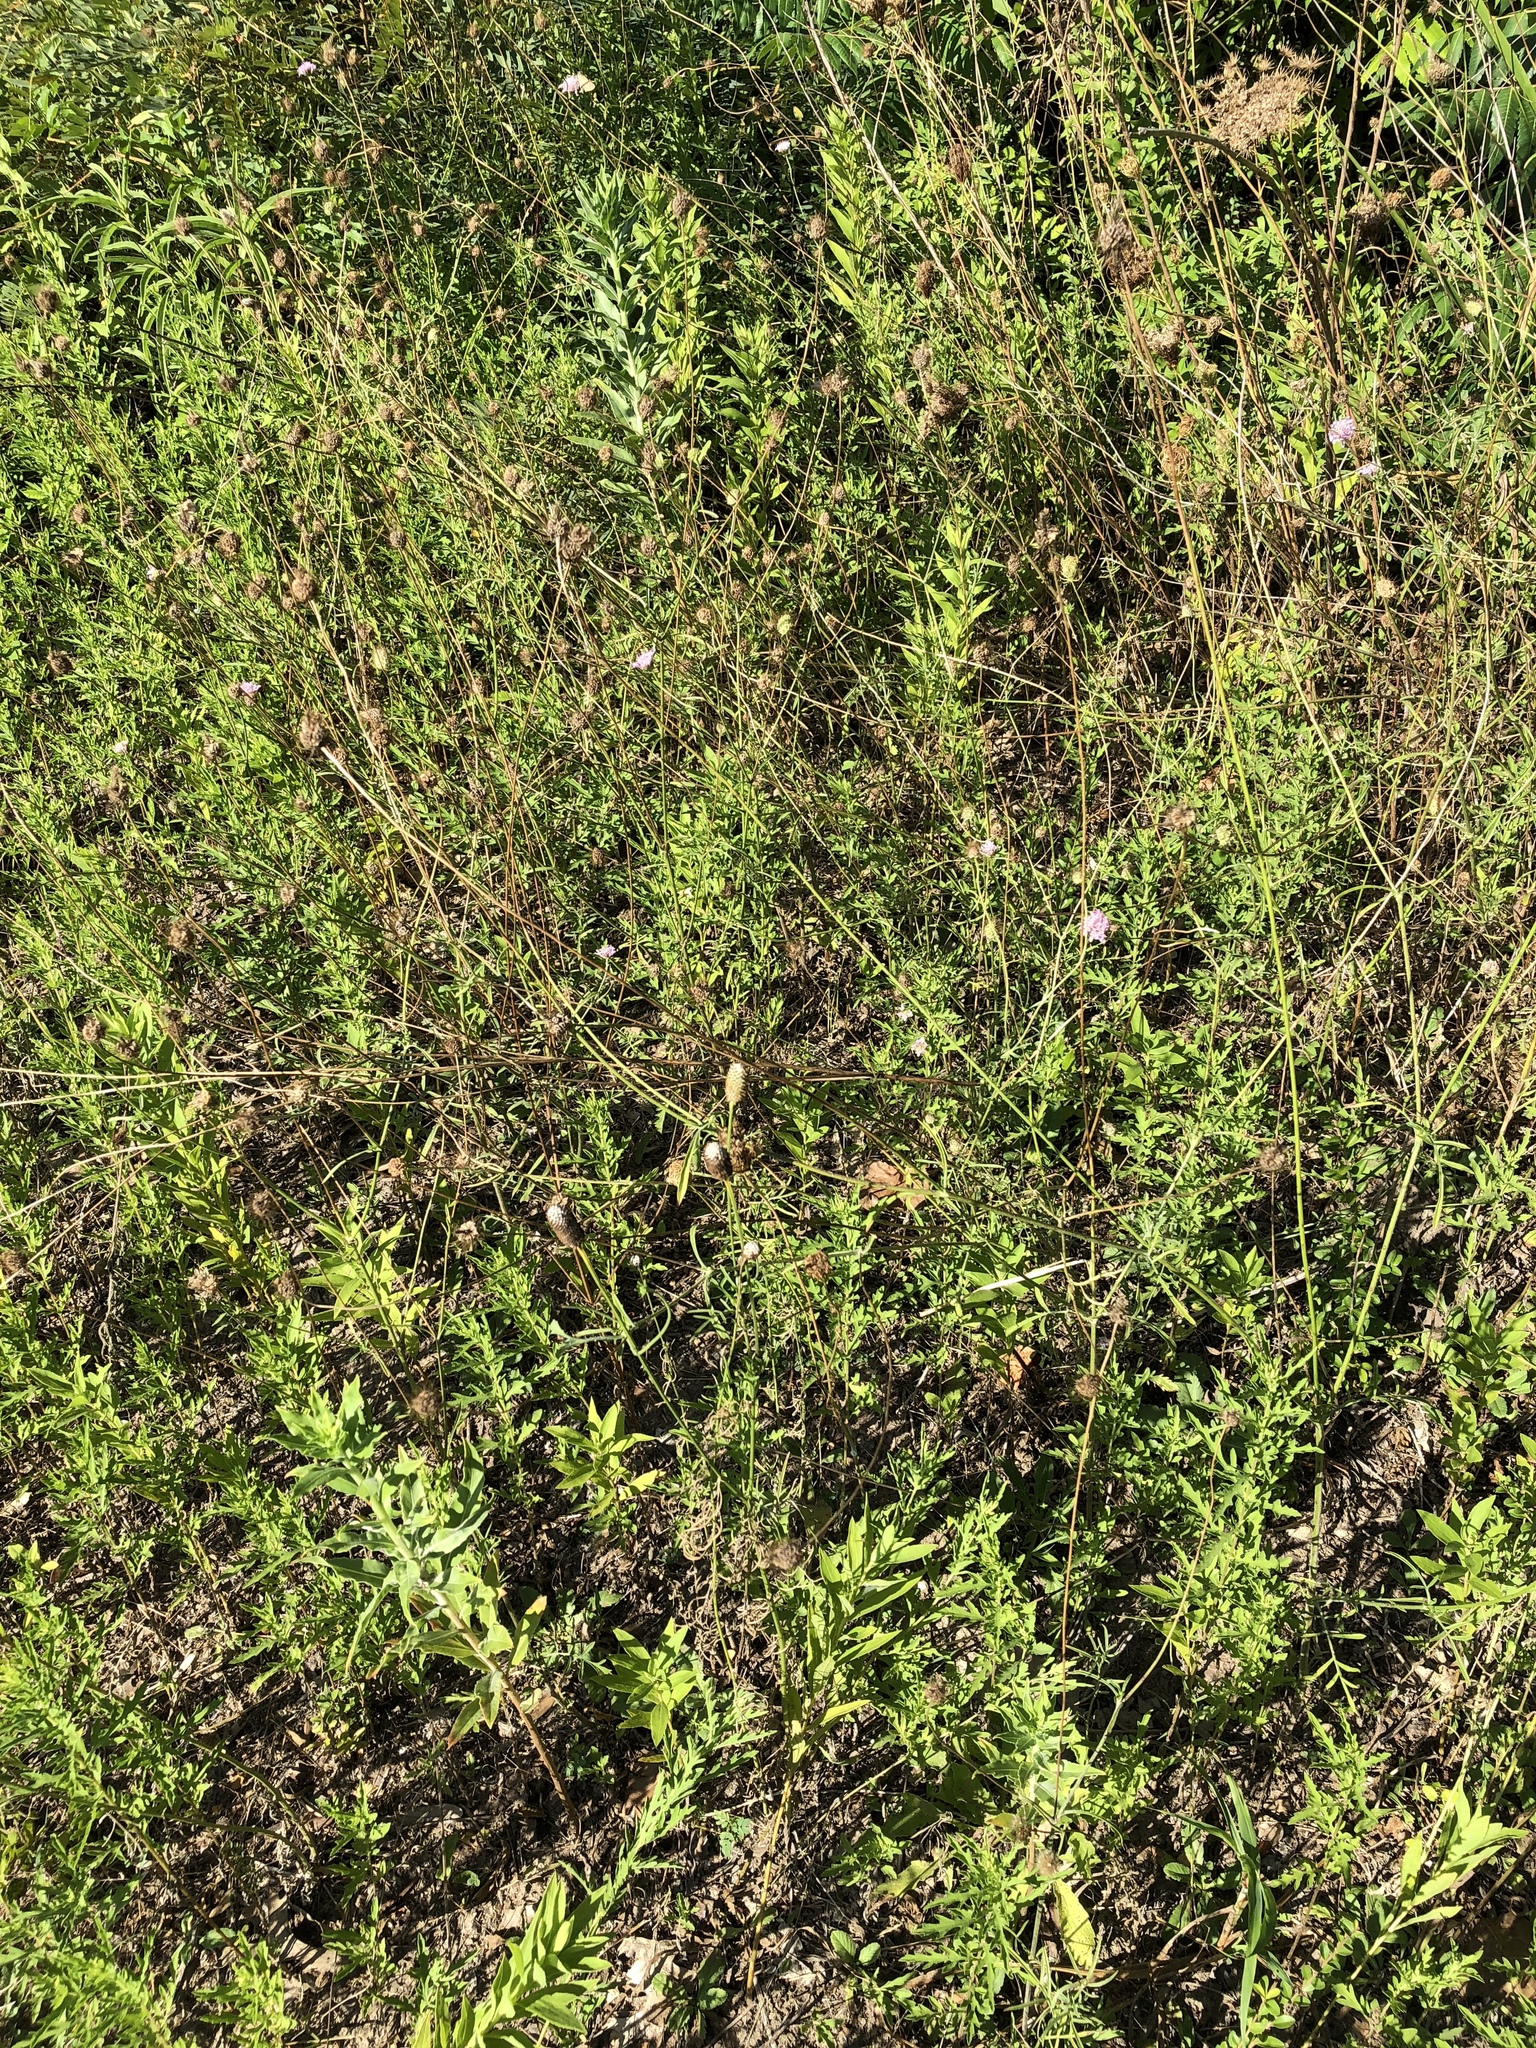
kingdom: Plantae
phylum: Tracheophyta
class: Magnoliopsida
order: Dipsacales
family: Caprifoliaceae
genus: Sixalix
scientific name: Sixalix atropurpurea
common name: Sweet scabious
